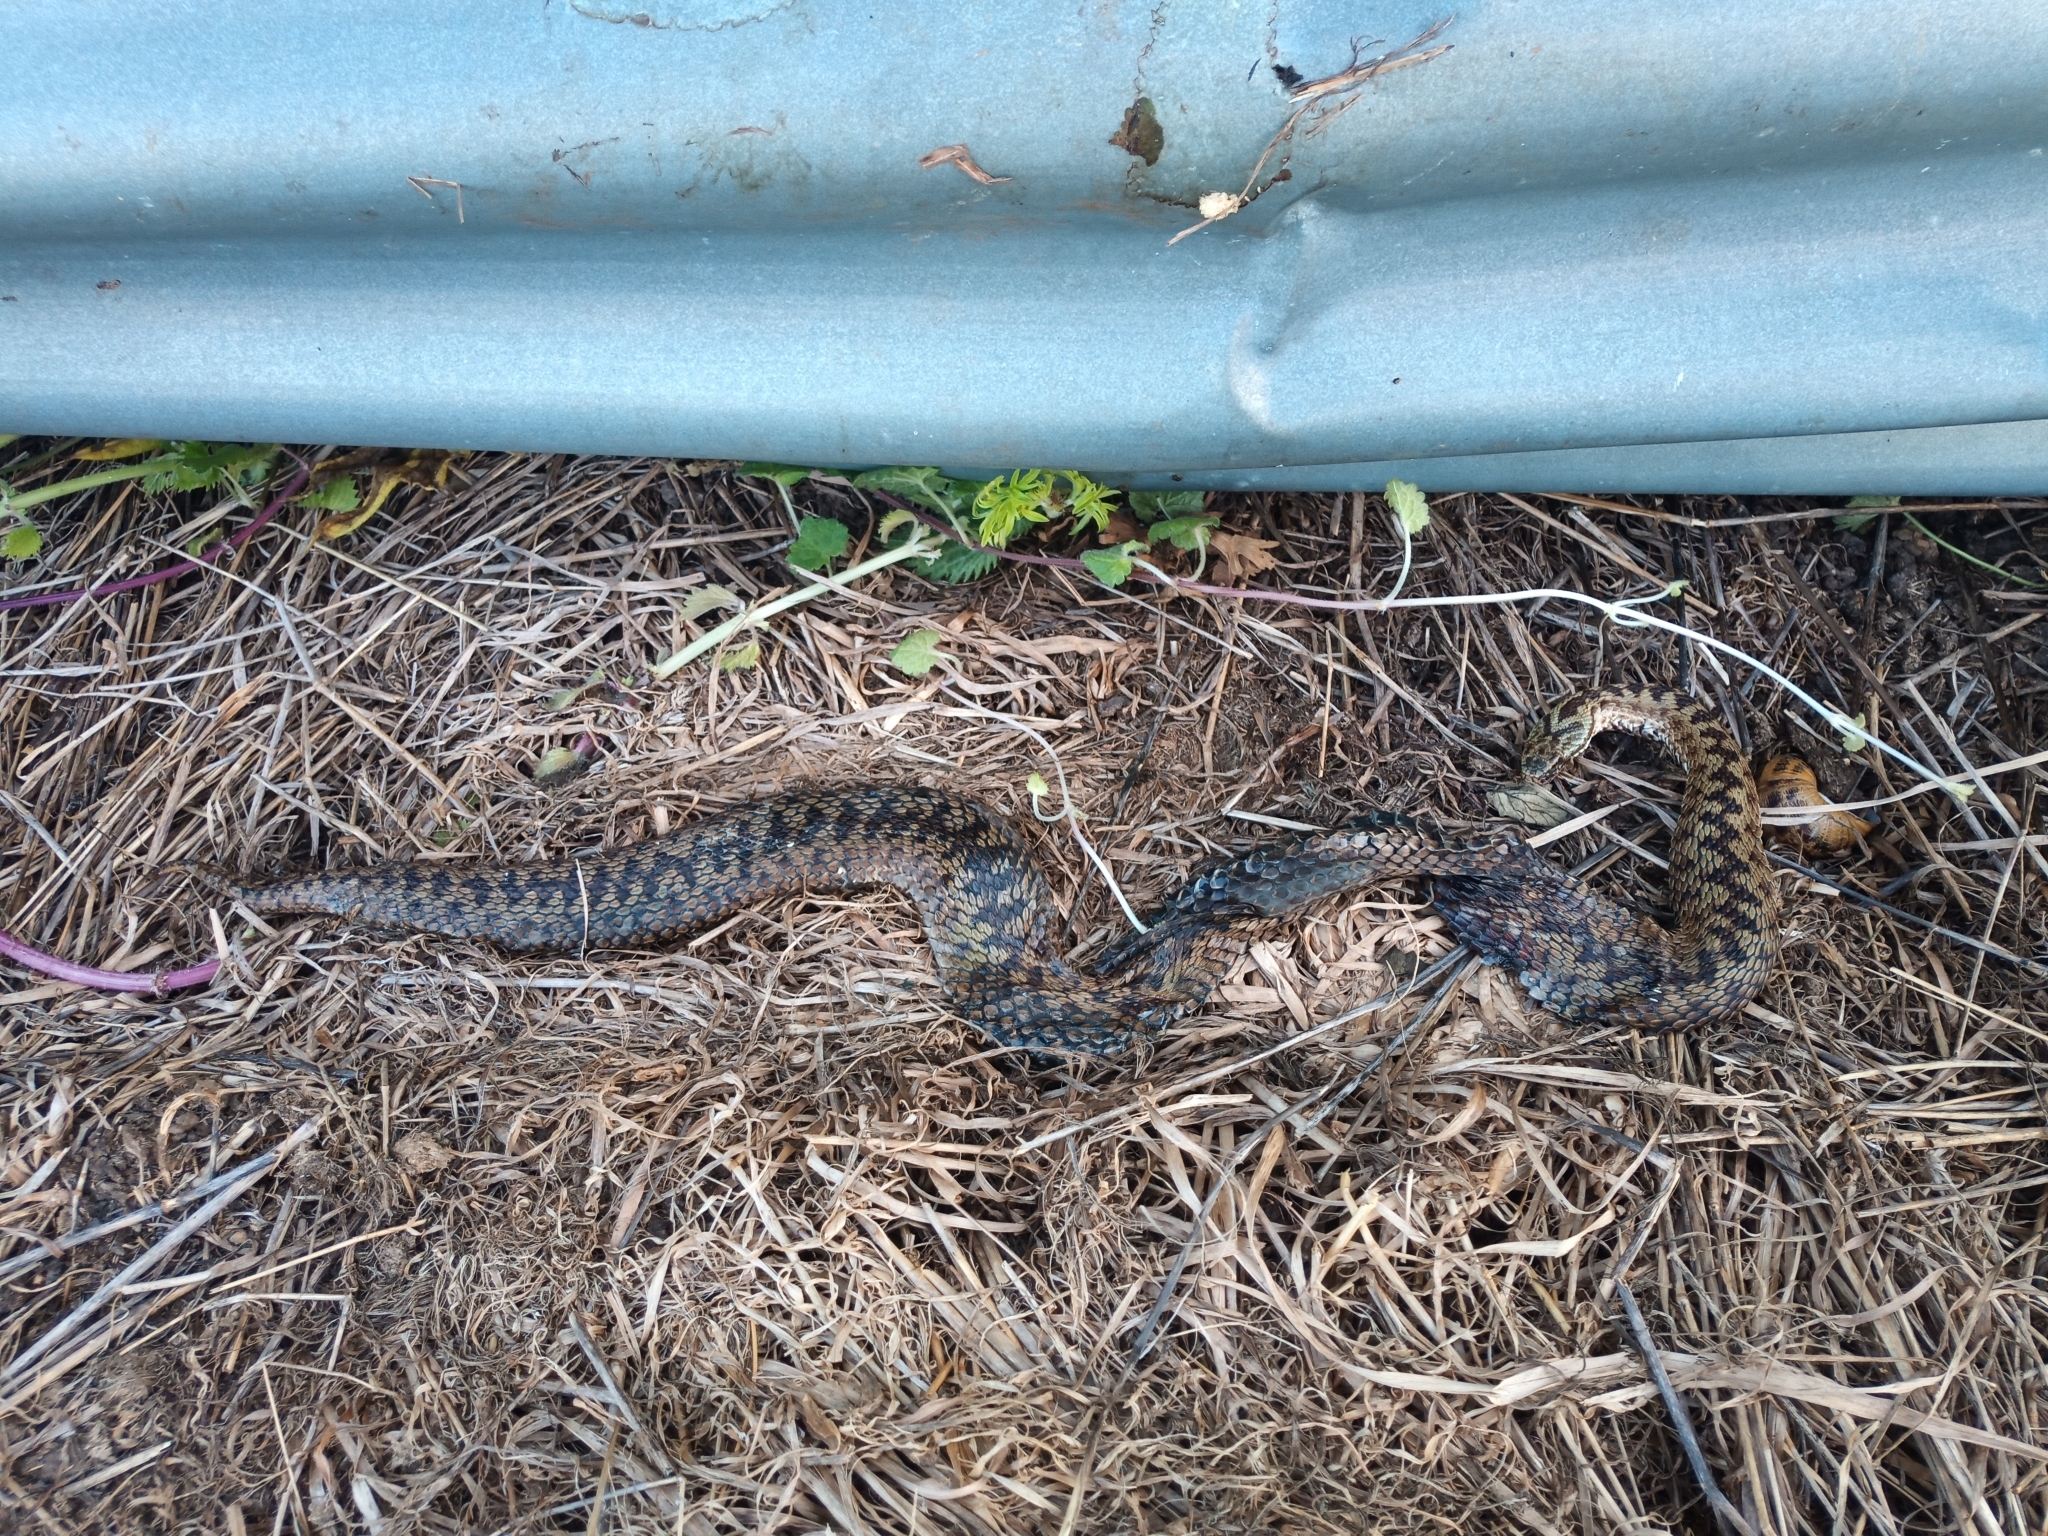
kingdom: Animalia
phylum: Chordata
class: Squamata
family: Viperidae
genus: Vipera
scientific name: Vipera berus
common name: Adder
